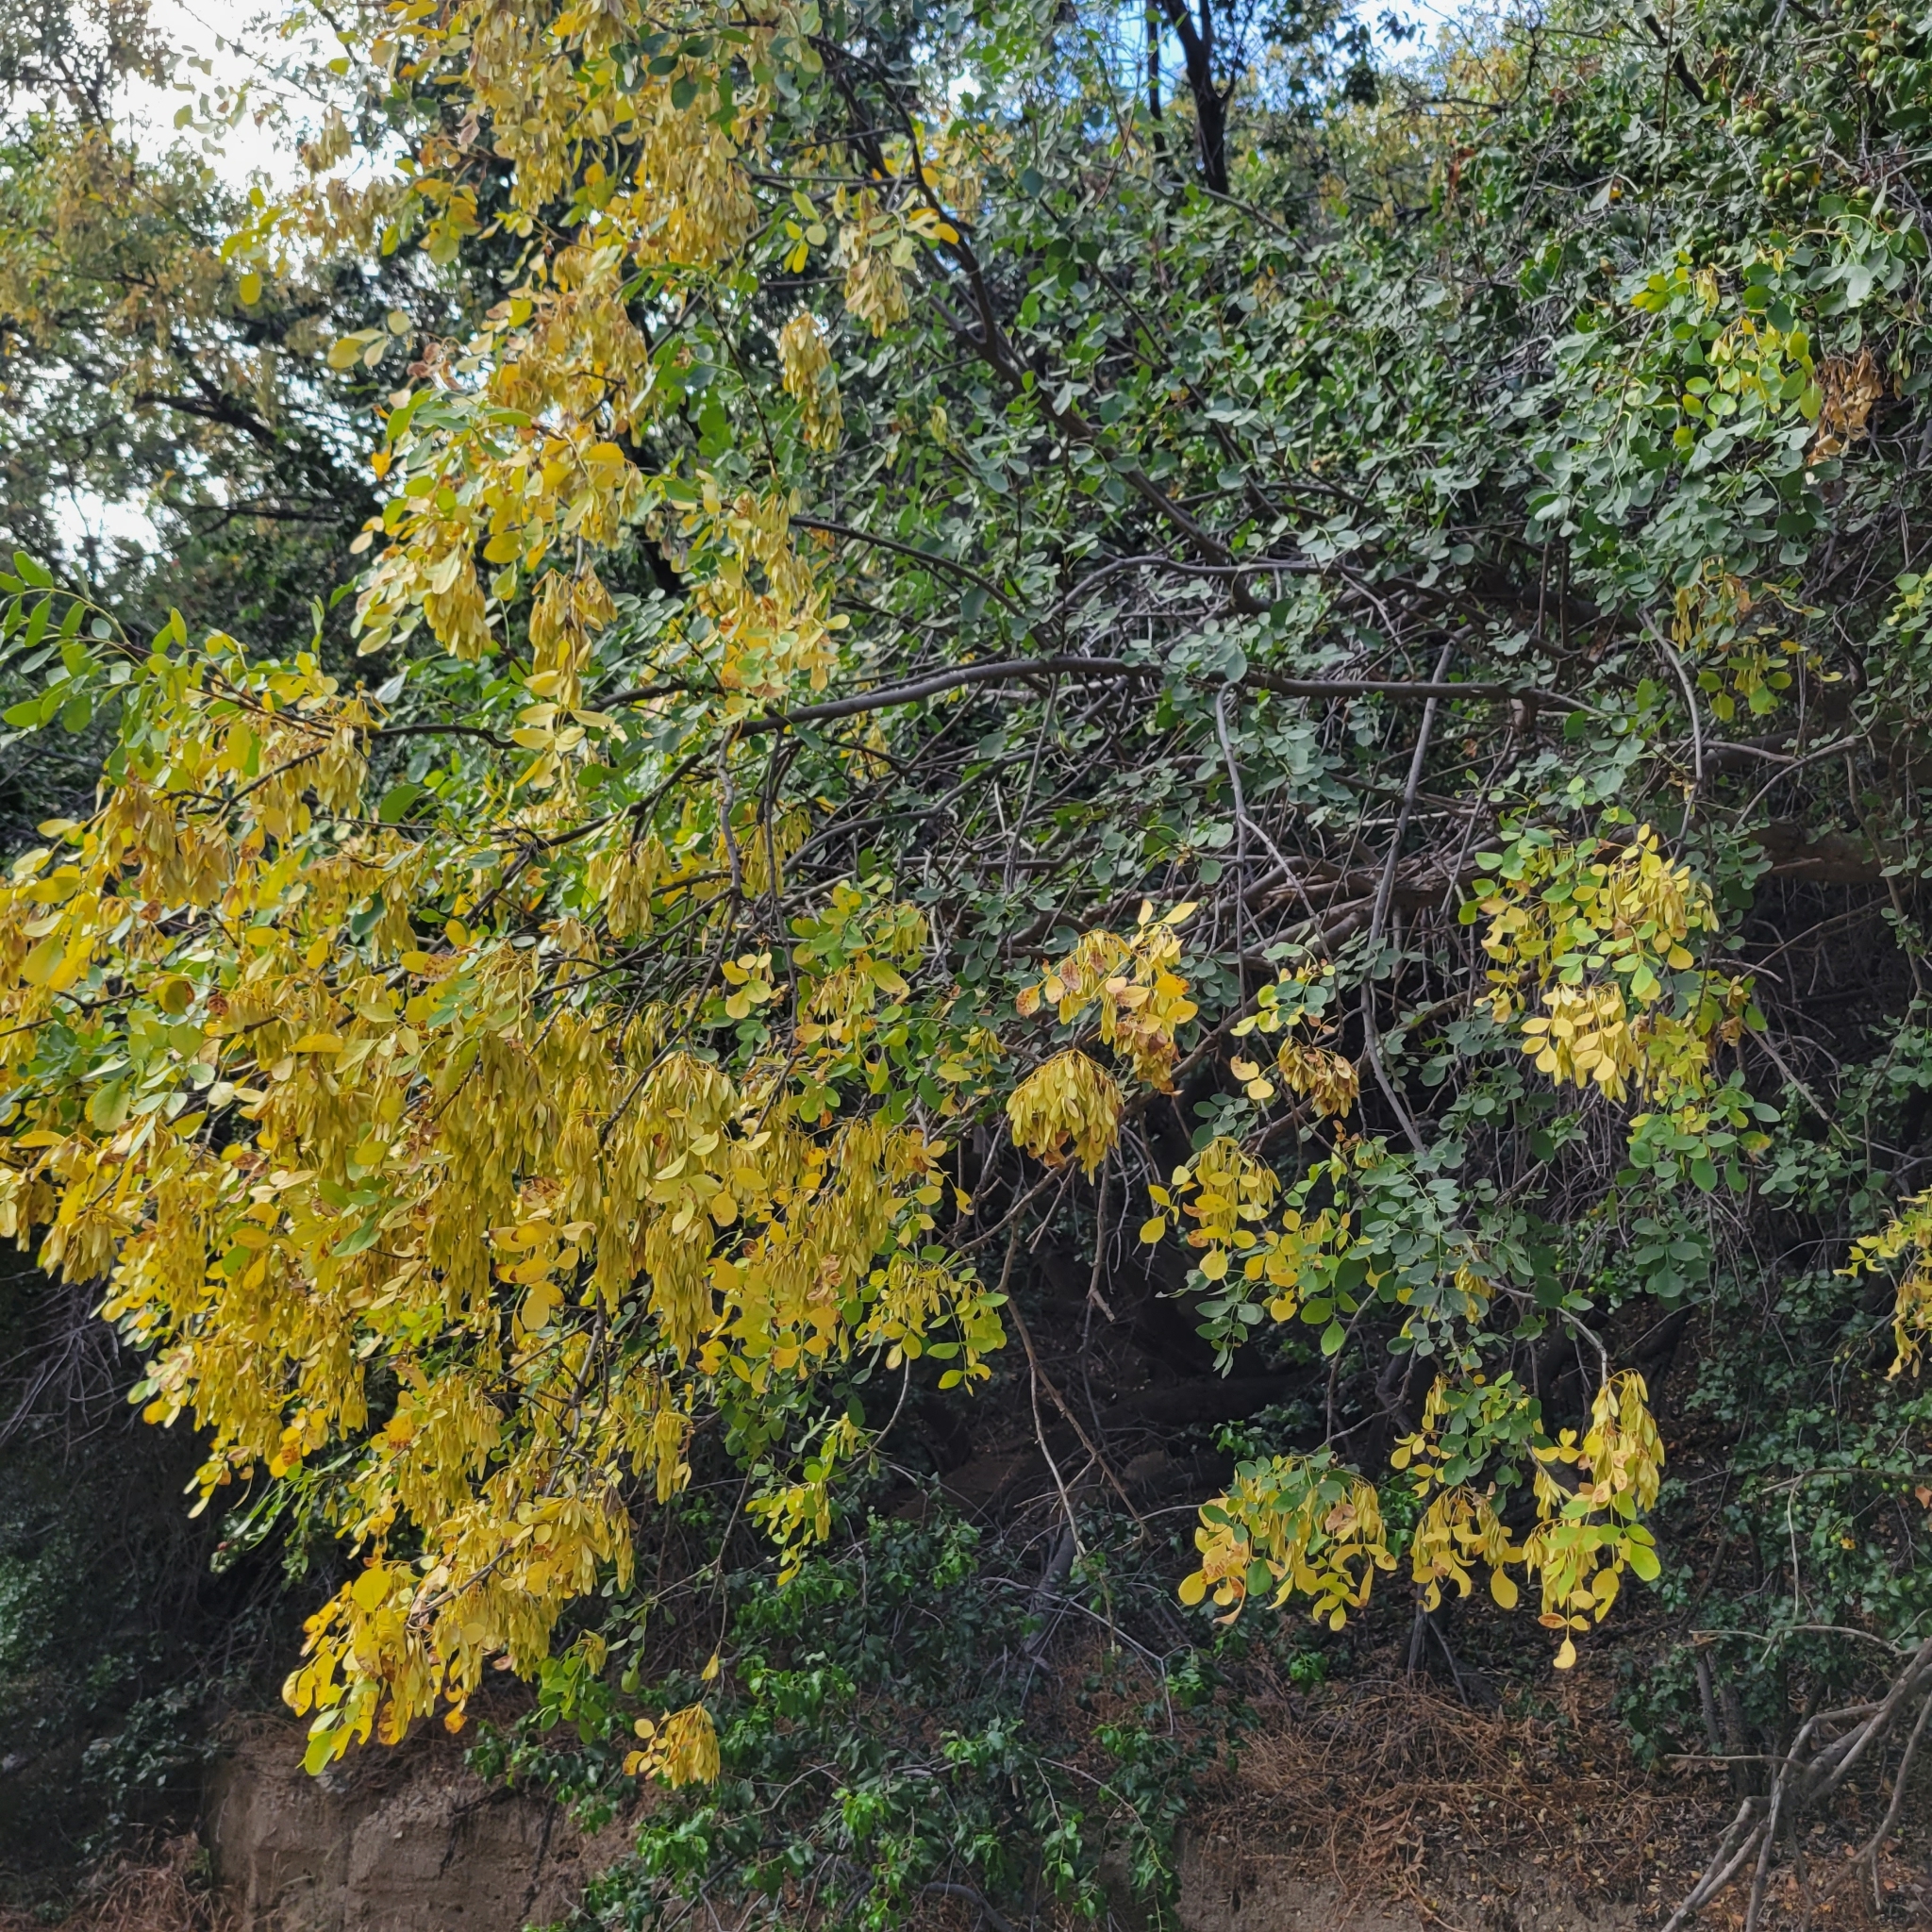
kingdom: Plantae
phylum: Tracheophyta
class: Magnoliopsida
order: Lamiales
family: Oleaceae
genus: Fraxinus
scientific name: Fraxinus dipetala
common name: California ash
